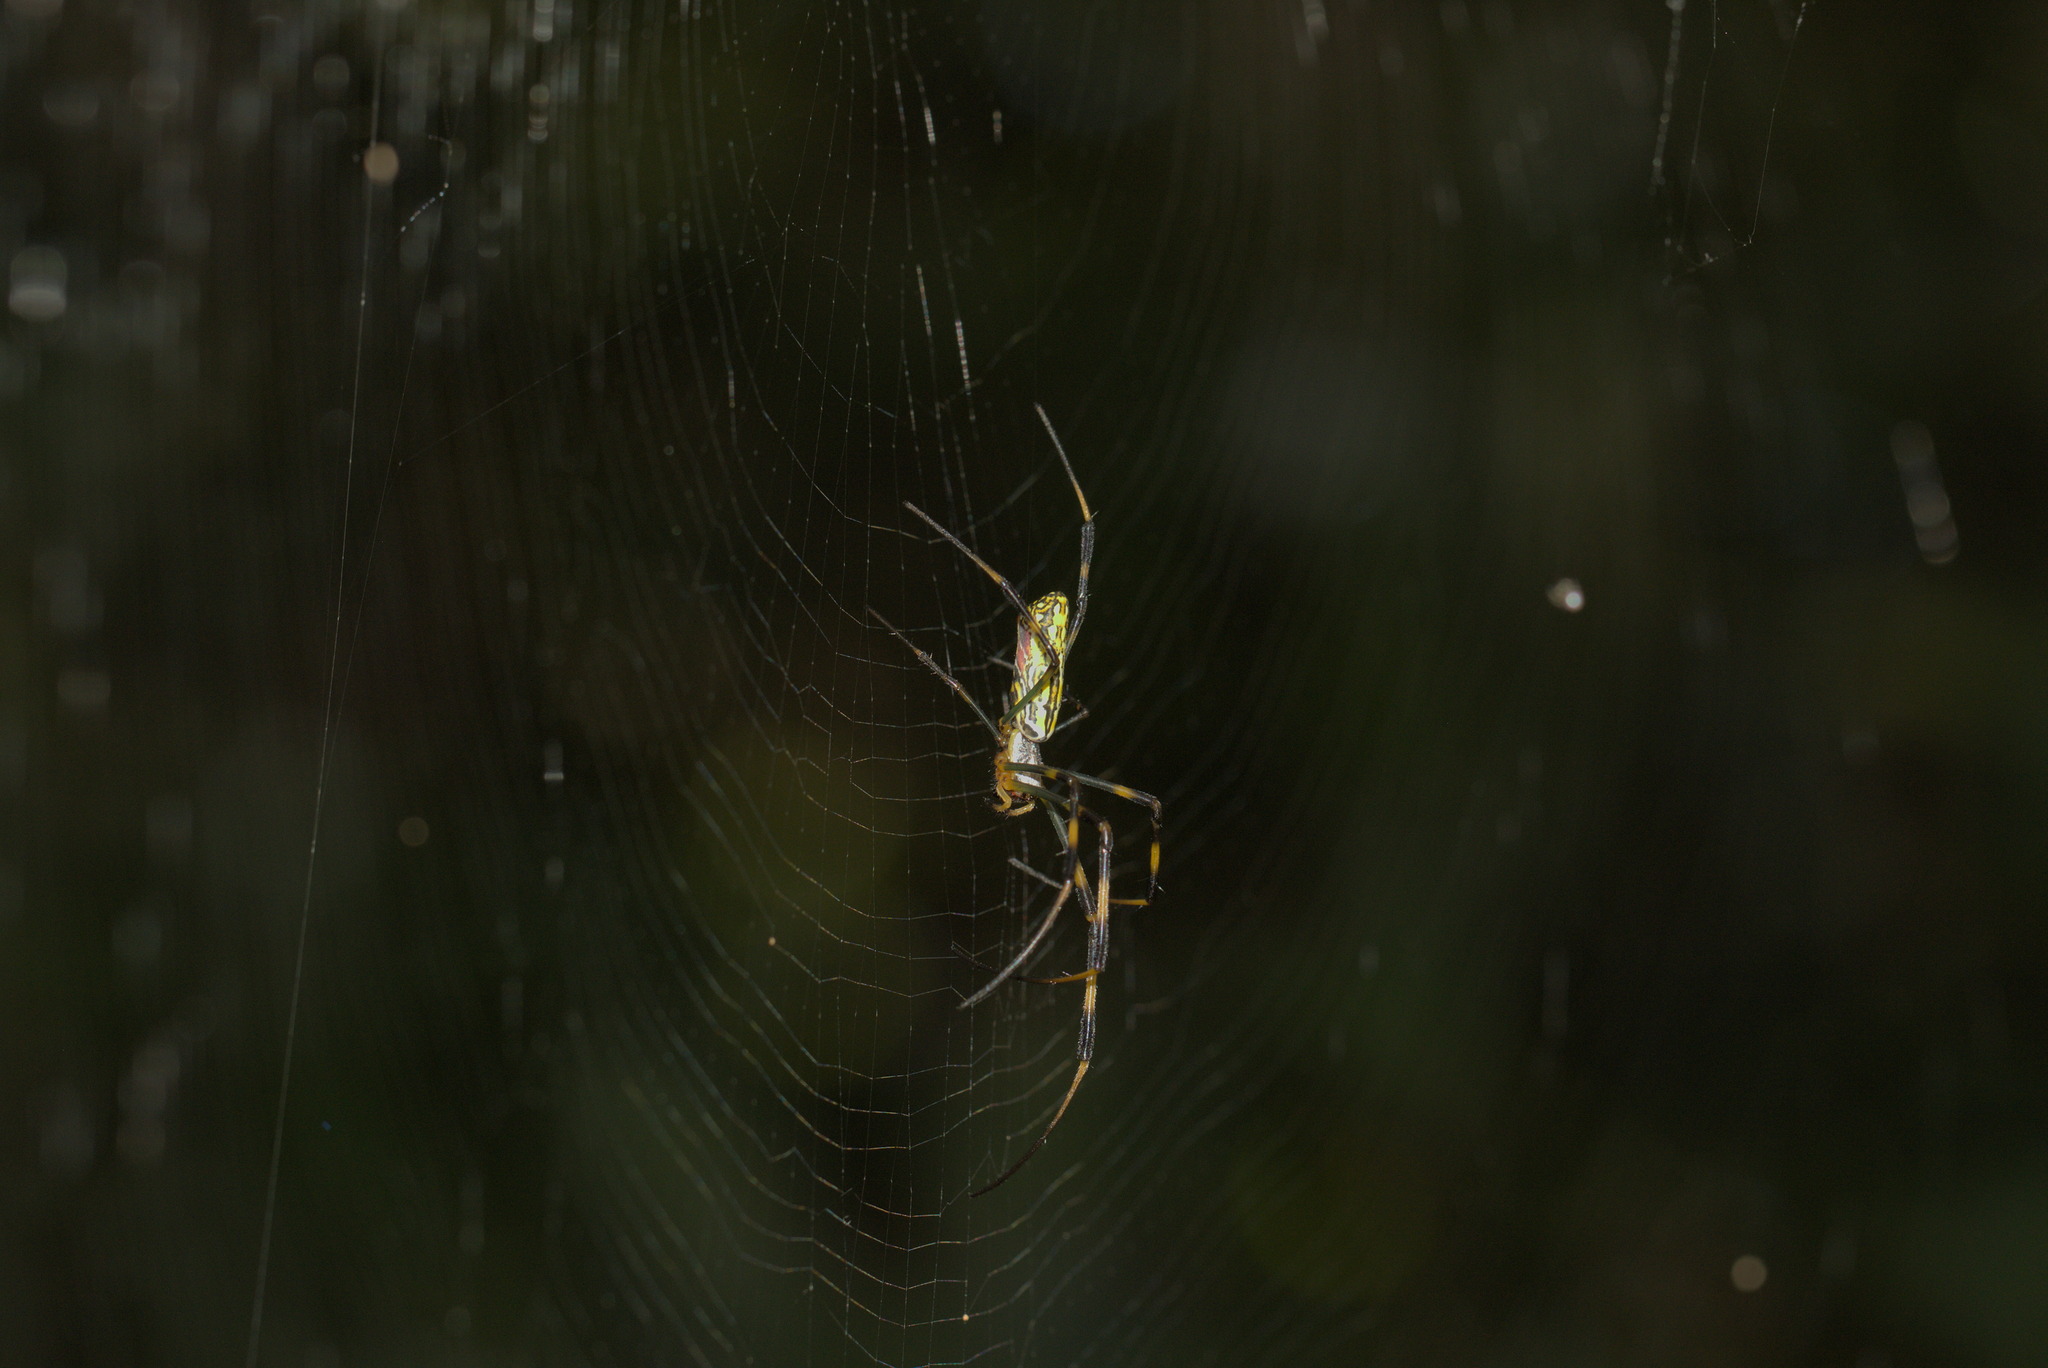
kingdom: Animalia
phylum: Arthropoda
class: Arachnida
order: Araneae
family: Araneidae
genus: Trichonephila
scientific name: Trichonephila clavata
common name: Jorō spider
